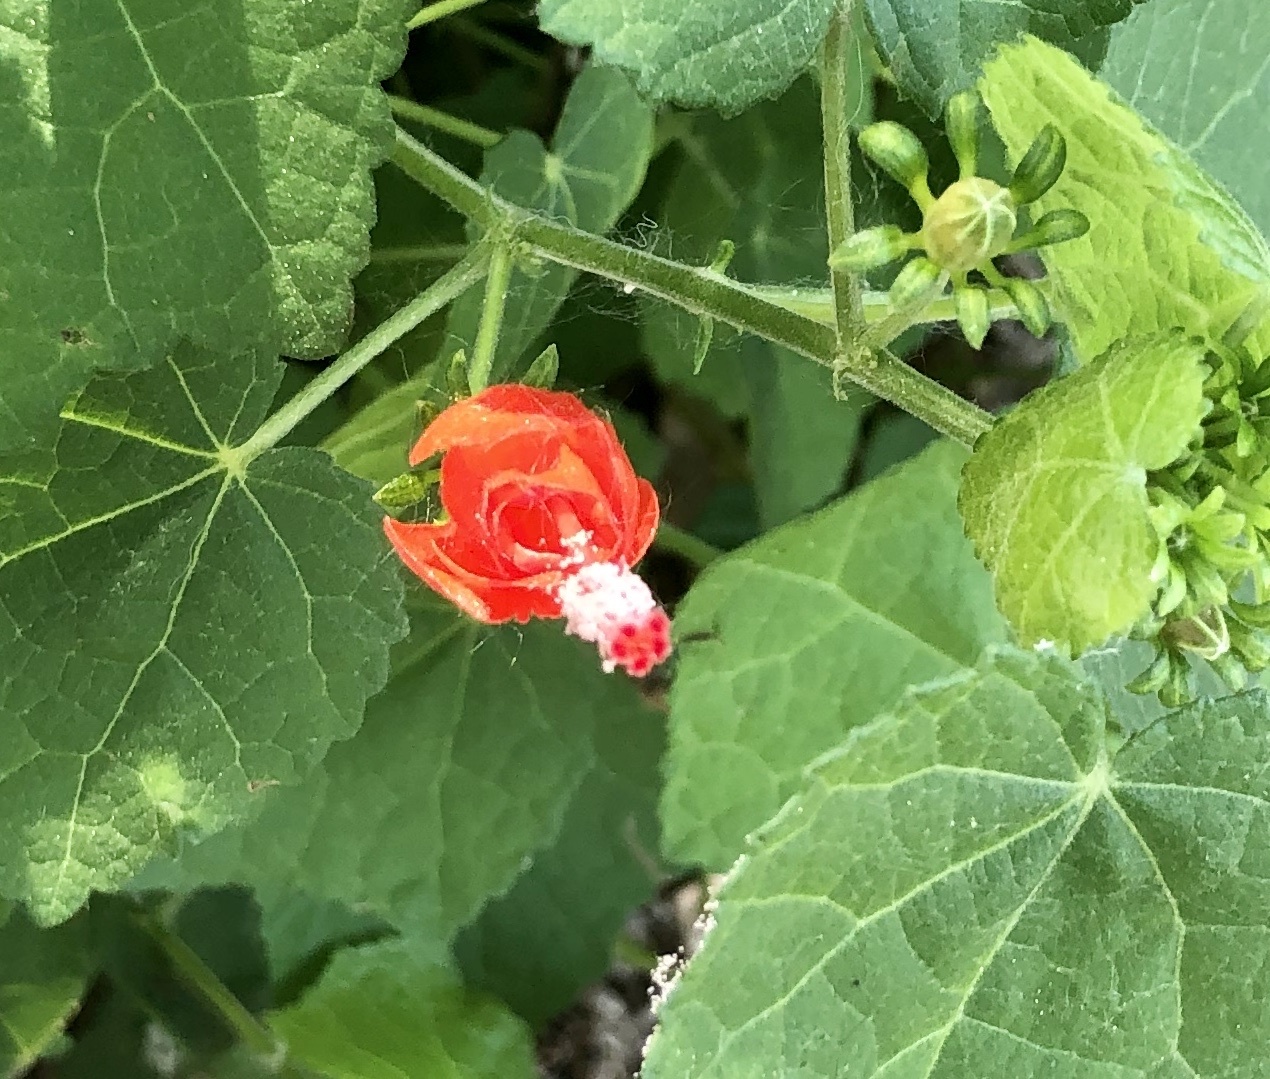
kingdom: Plantae
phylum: Tracheophyta
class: Magnoliopsida
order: Malvales
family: Malvaceae
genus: Malvaviscus
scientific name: Malvaviscus arboreus
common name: Wax mallow
